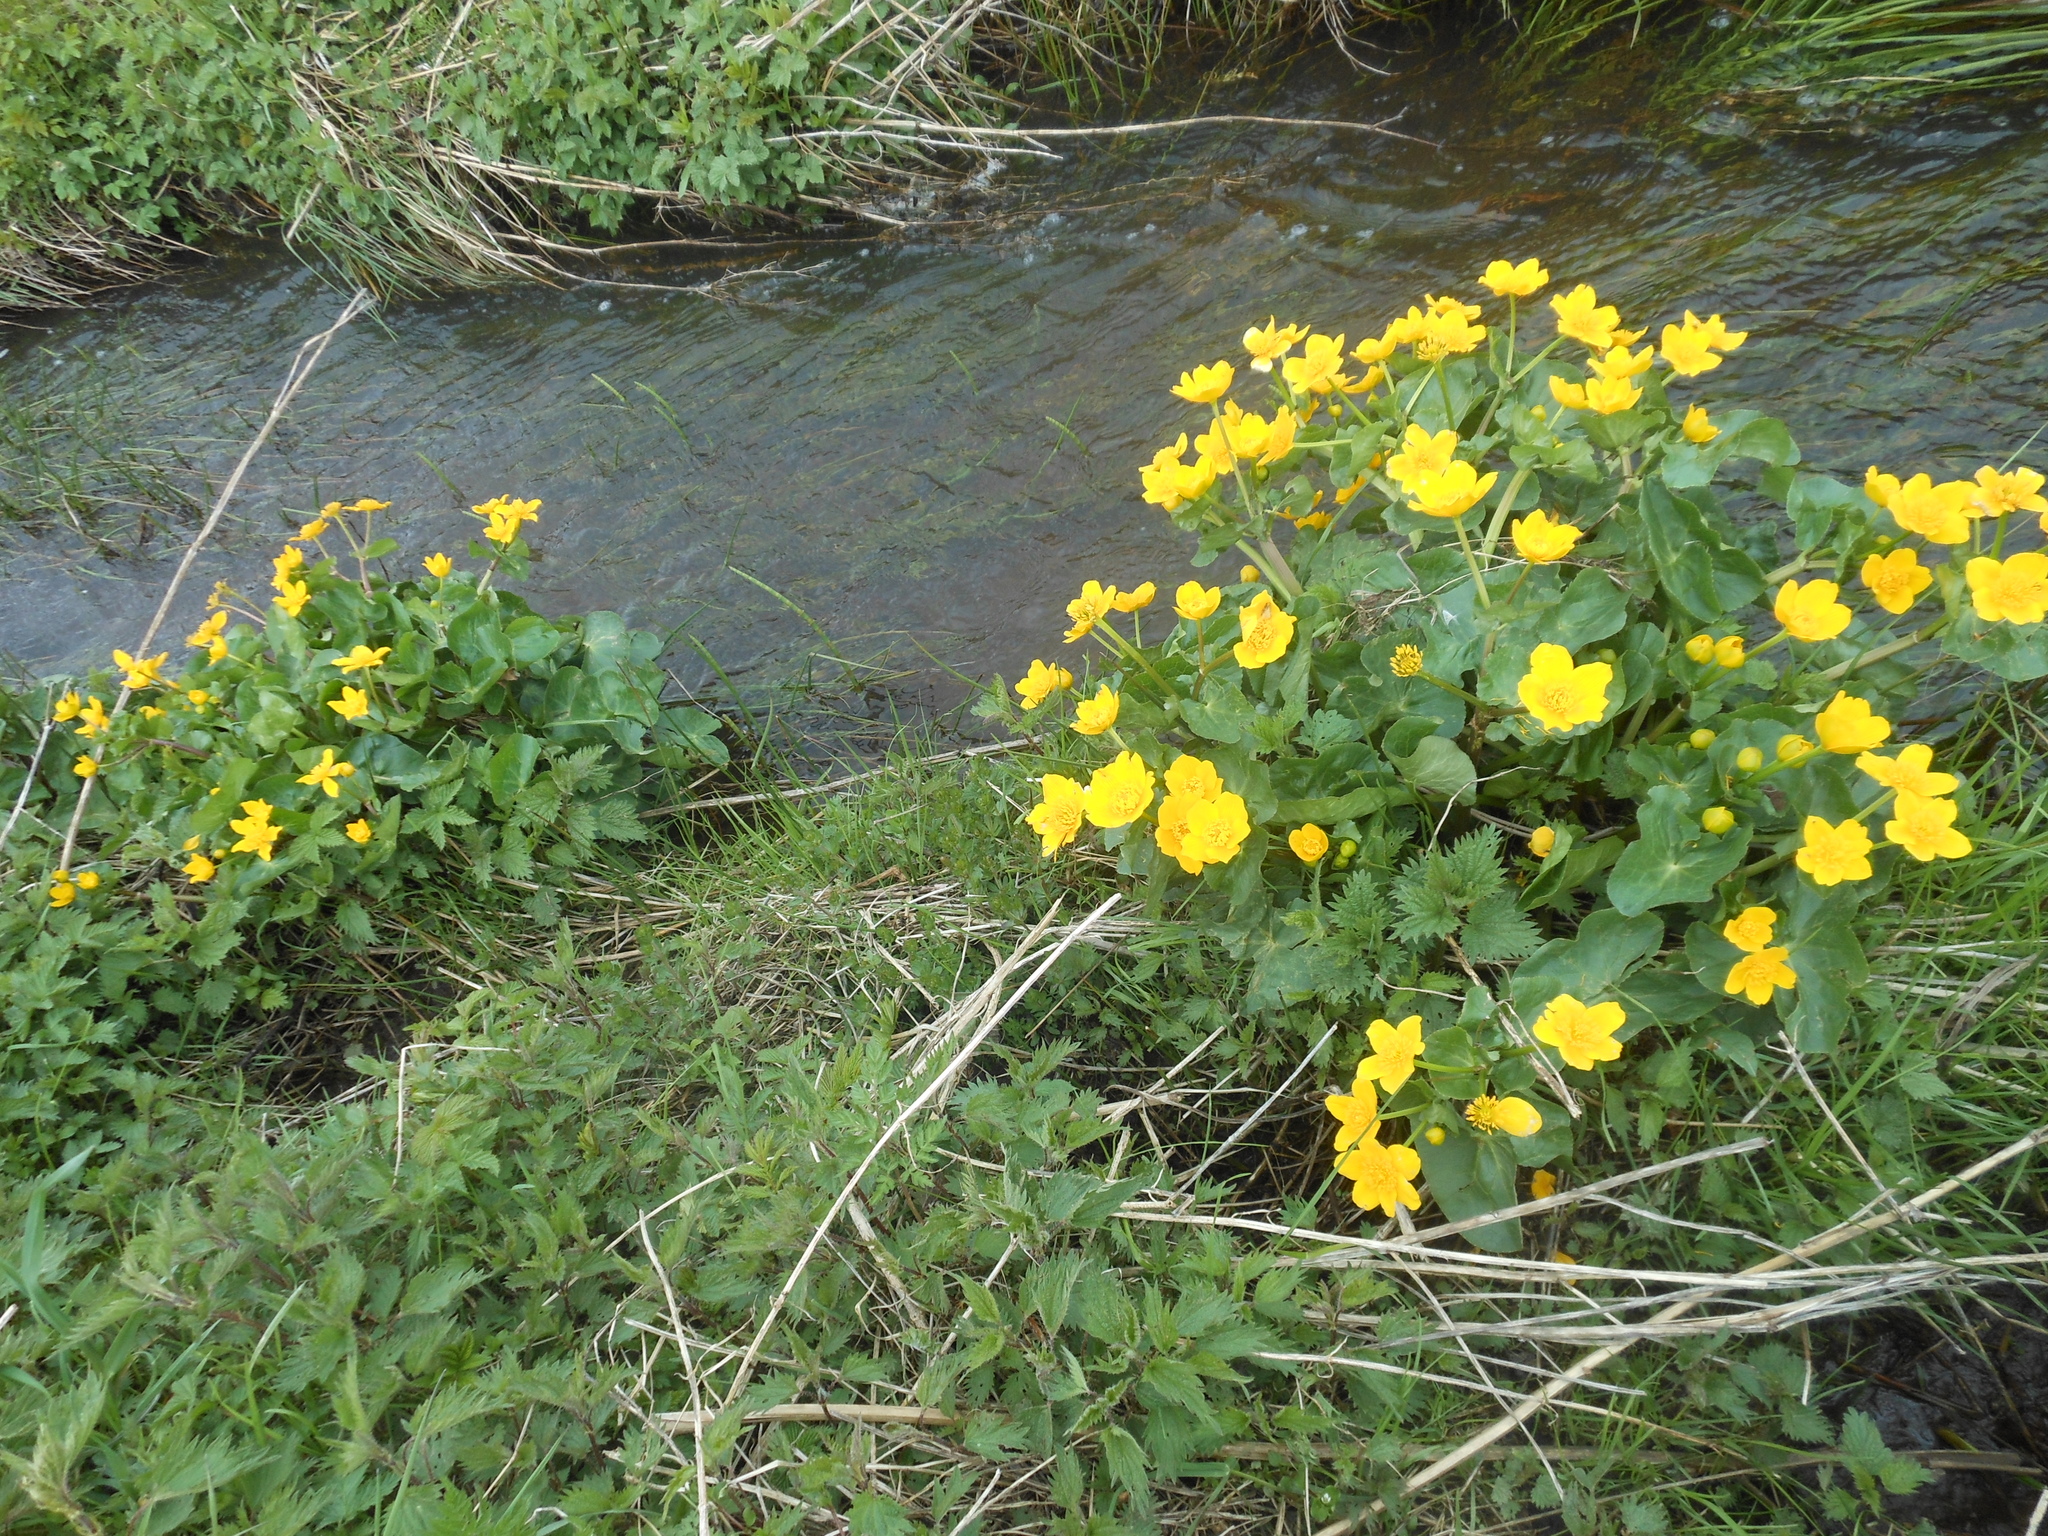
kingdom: Plantae
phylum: Tracheophyta
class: Magnoliopsida
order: Ranunculales
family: Ranunculaceae
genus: Caltha
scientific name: Caltha palustris
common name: Marsh marigold
